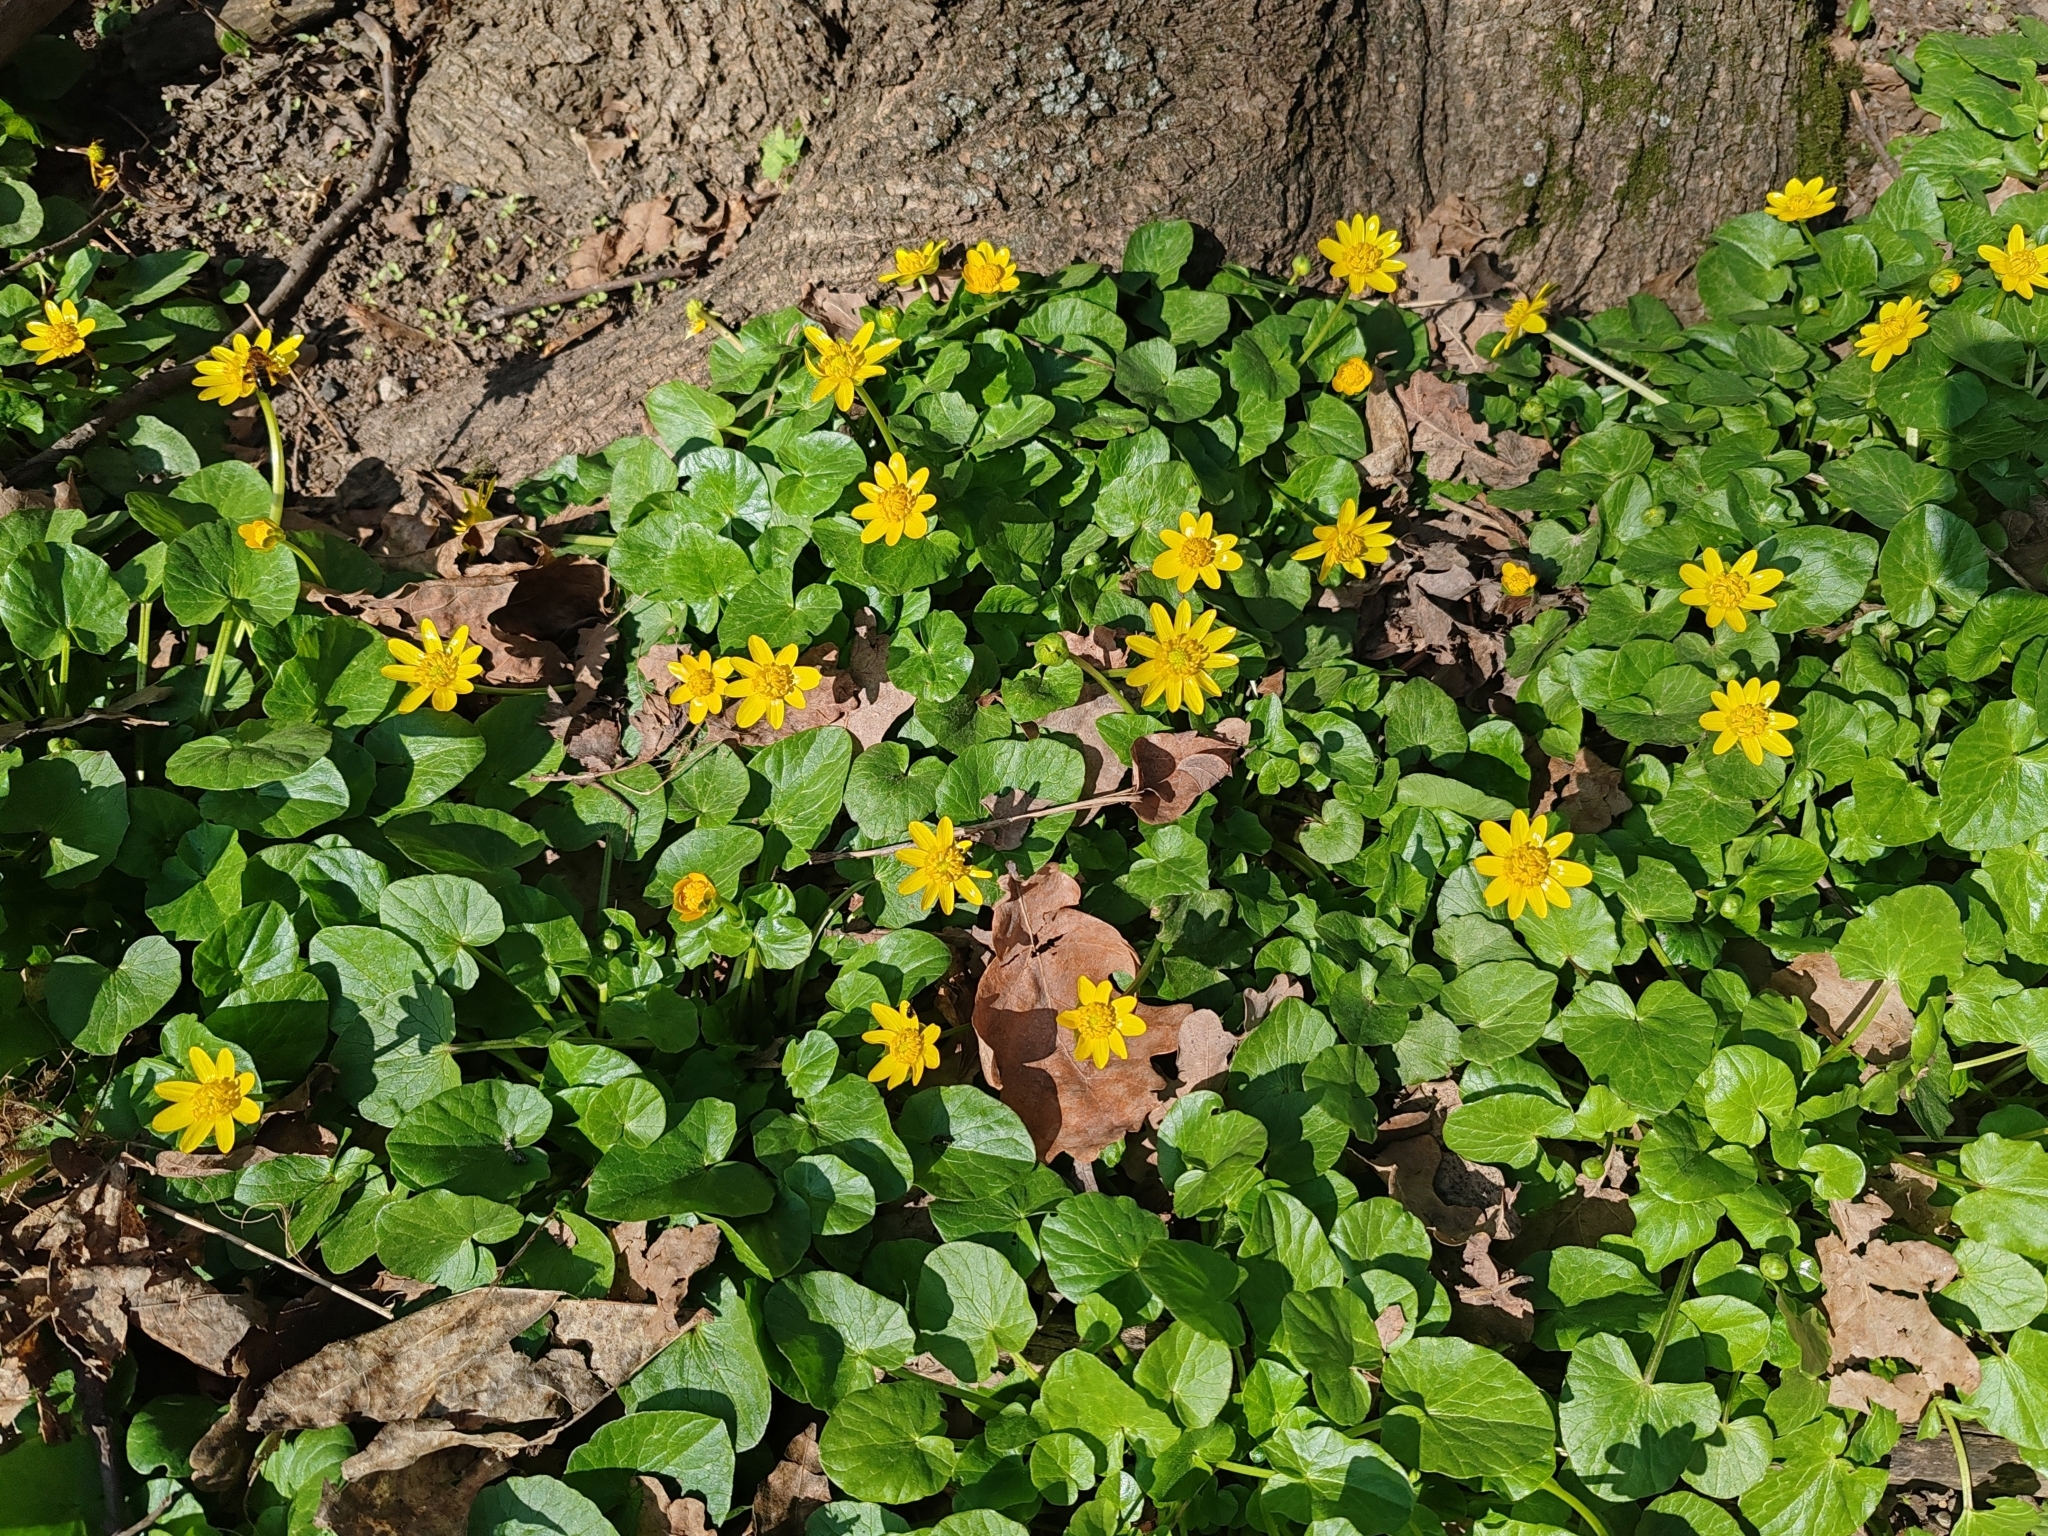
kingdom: Plantae
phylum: Tracheophyta
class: Magnoliopsida
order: Ranunculales
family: Ranunculaceae
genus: Ficaria
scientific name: Ficaria verna
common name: Lesser celandine
